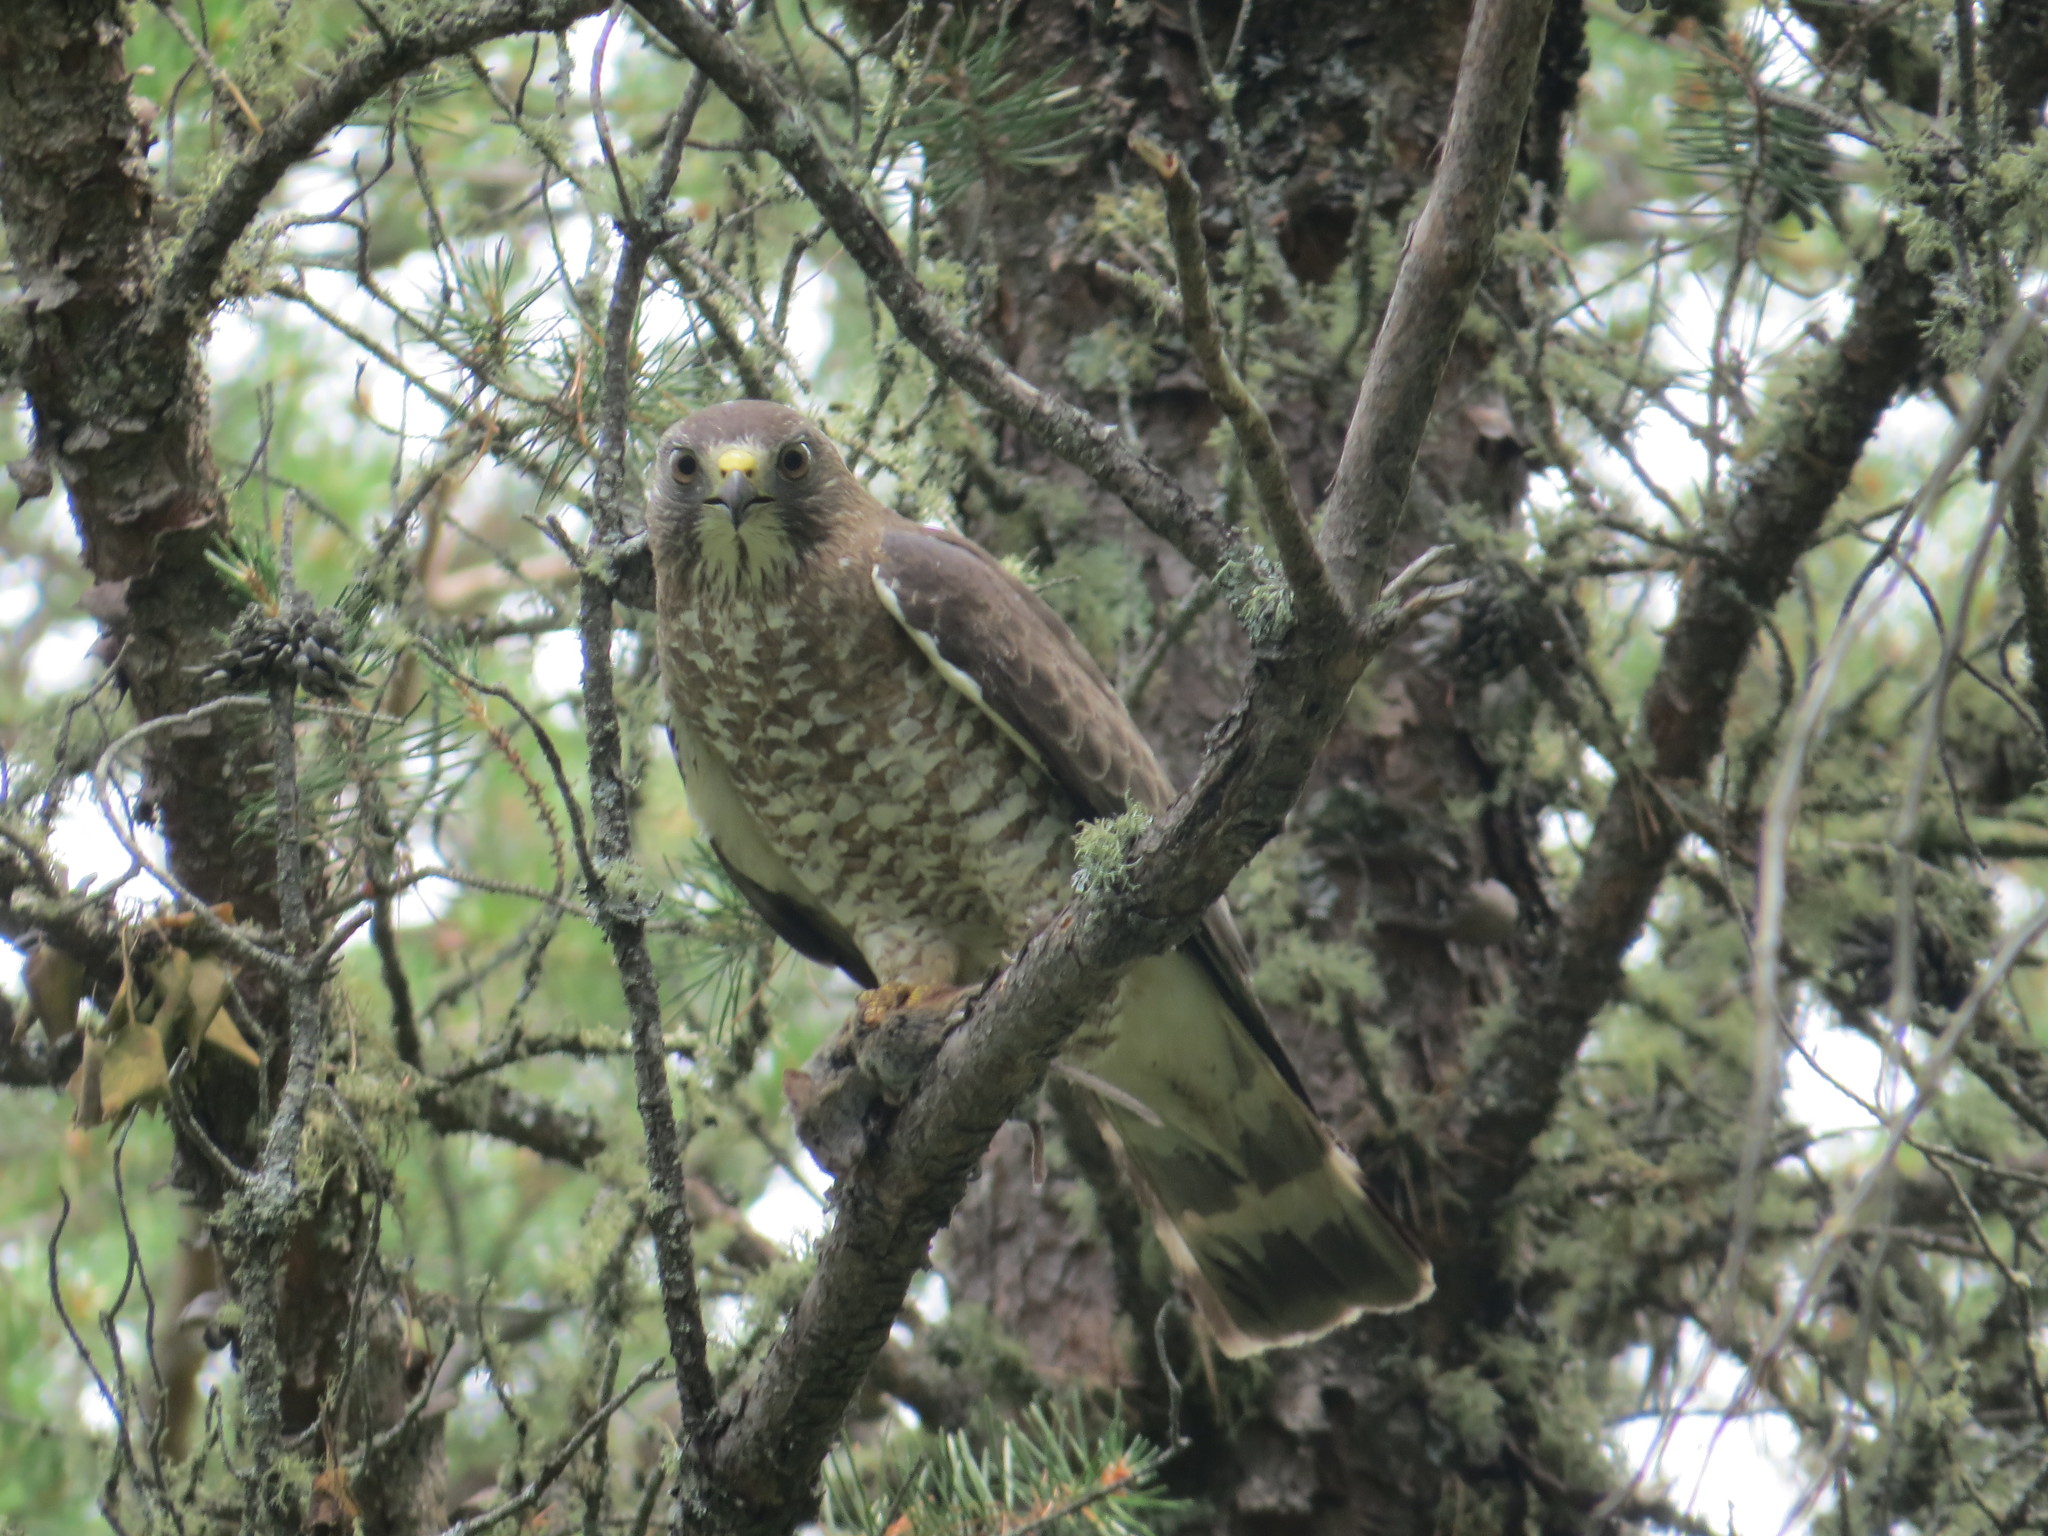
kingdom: Animalia
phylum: Chordata
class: Aves
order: Accipitriformes
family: Accipitridae
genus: Buteo
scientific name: Buteo platypterus
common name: Broad-winged hawk
